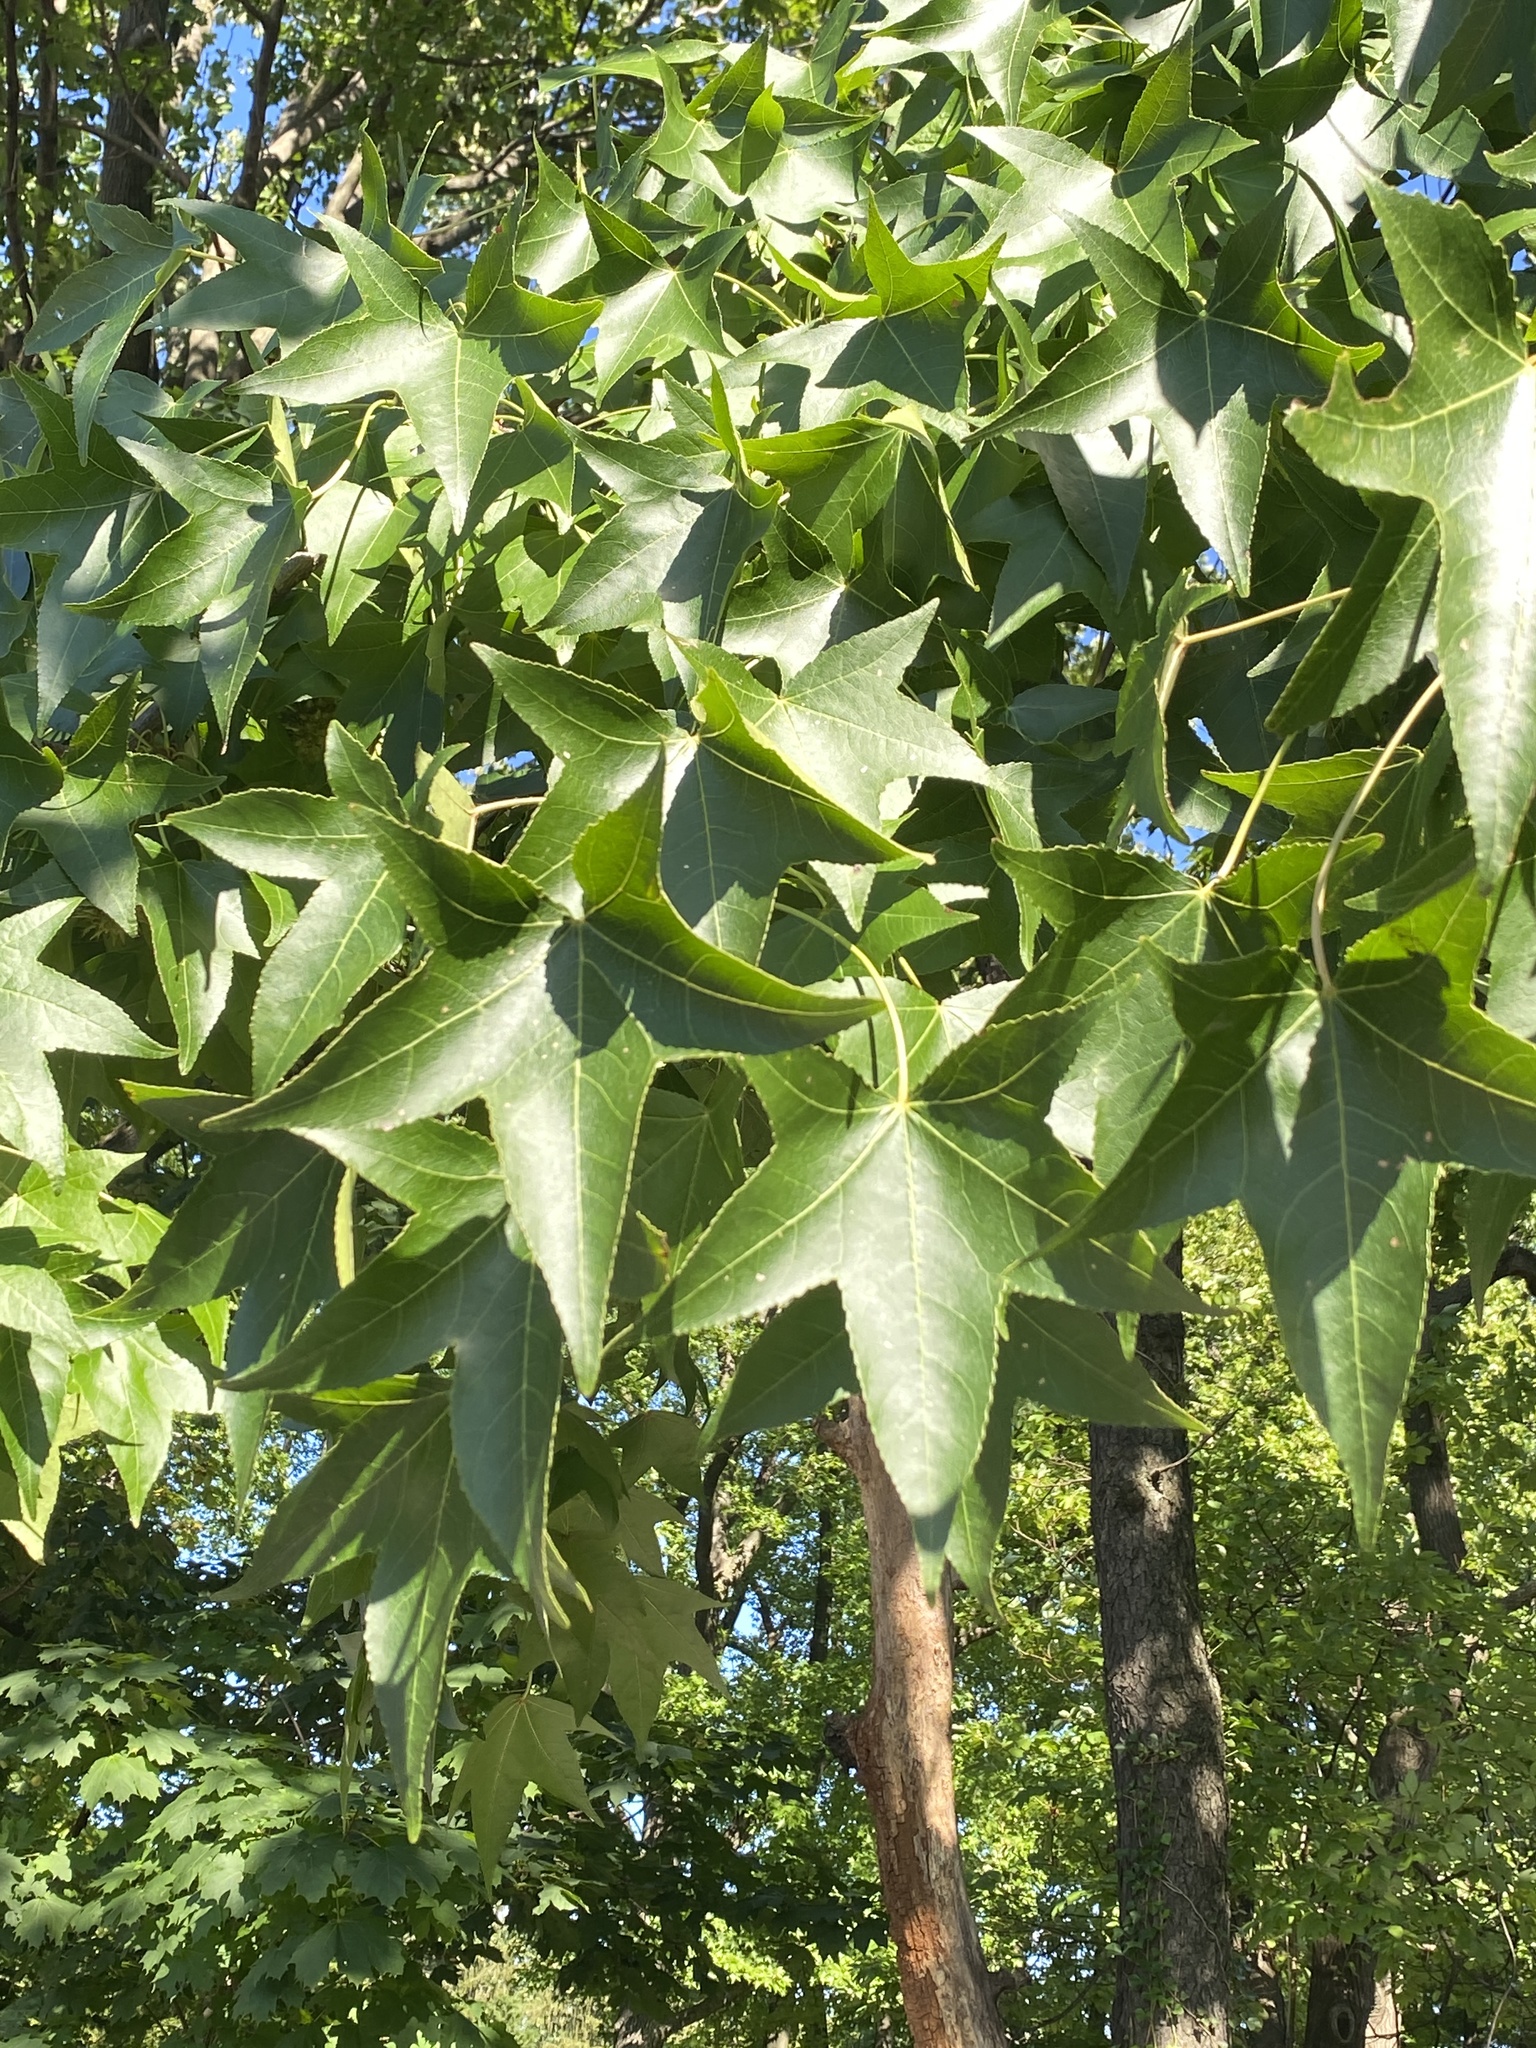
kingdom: Plantae
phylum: Tracheophyta
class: Magnoliopsida
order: Saxifragales
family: Altingiaceae
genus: Liquidambar
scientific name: Liquidambar styraciflua
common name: Sweet gum
